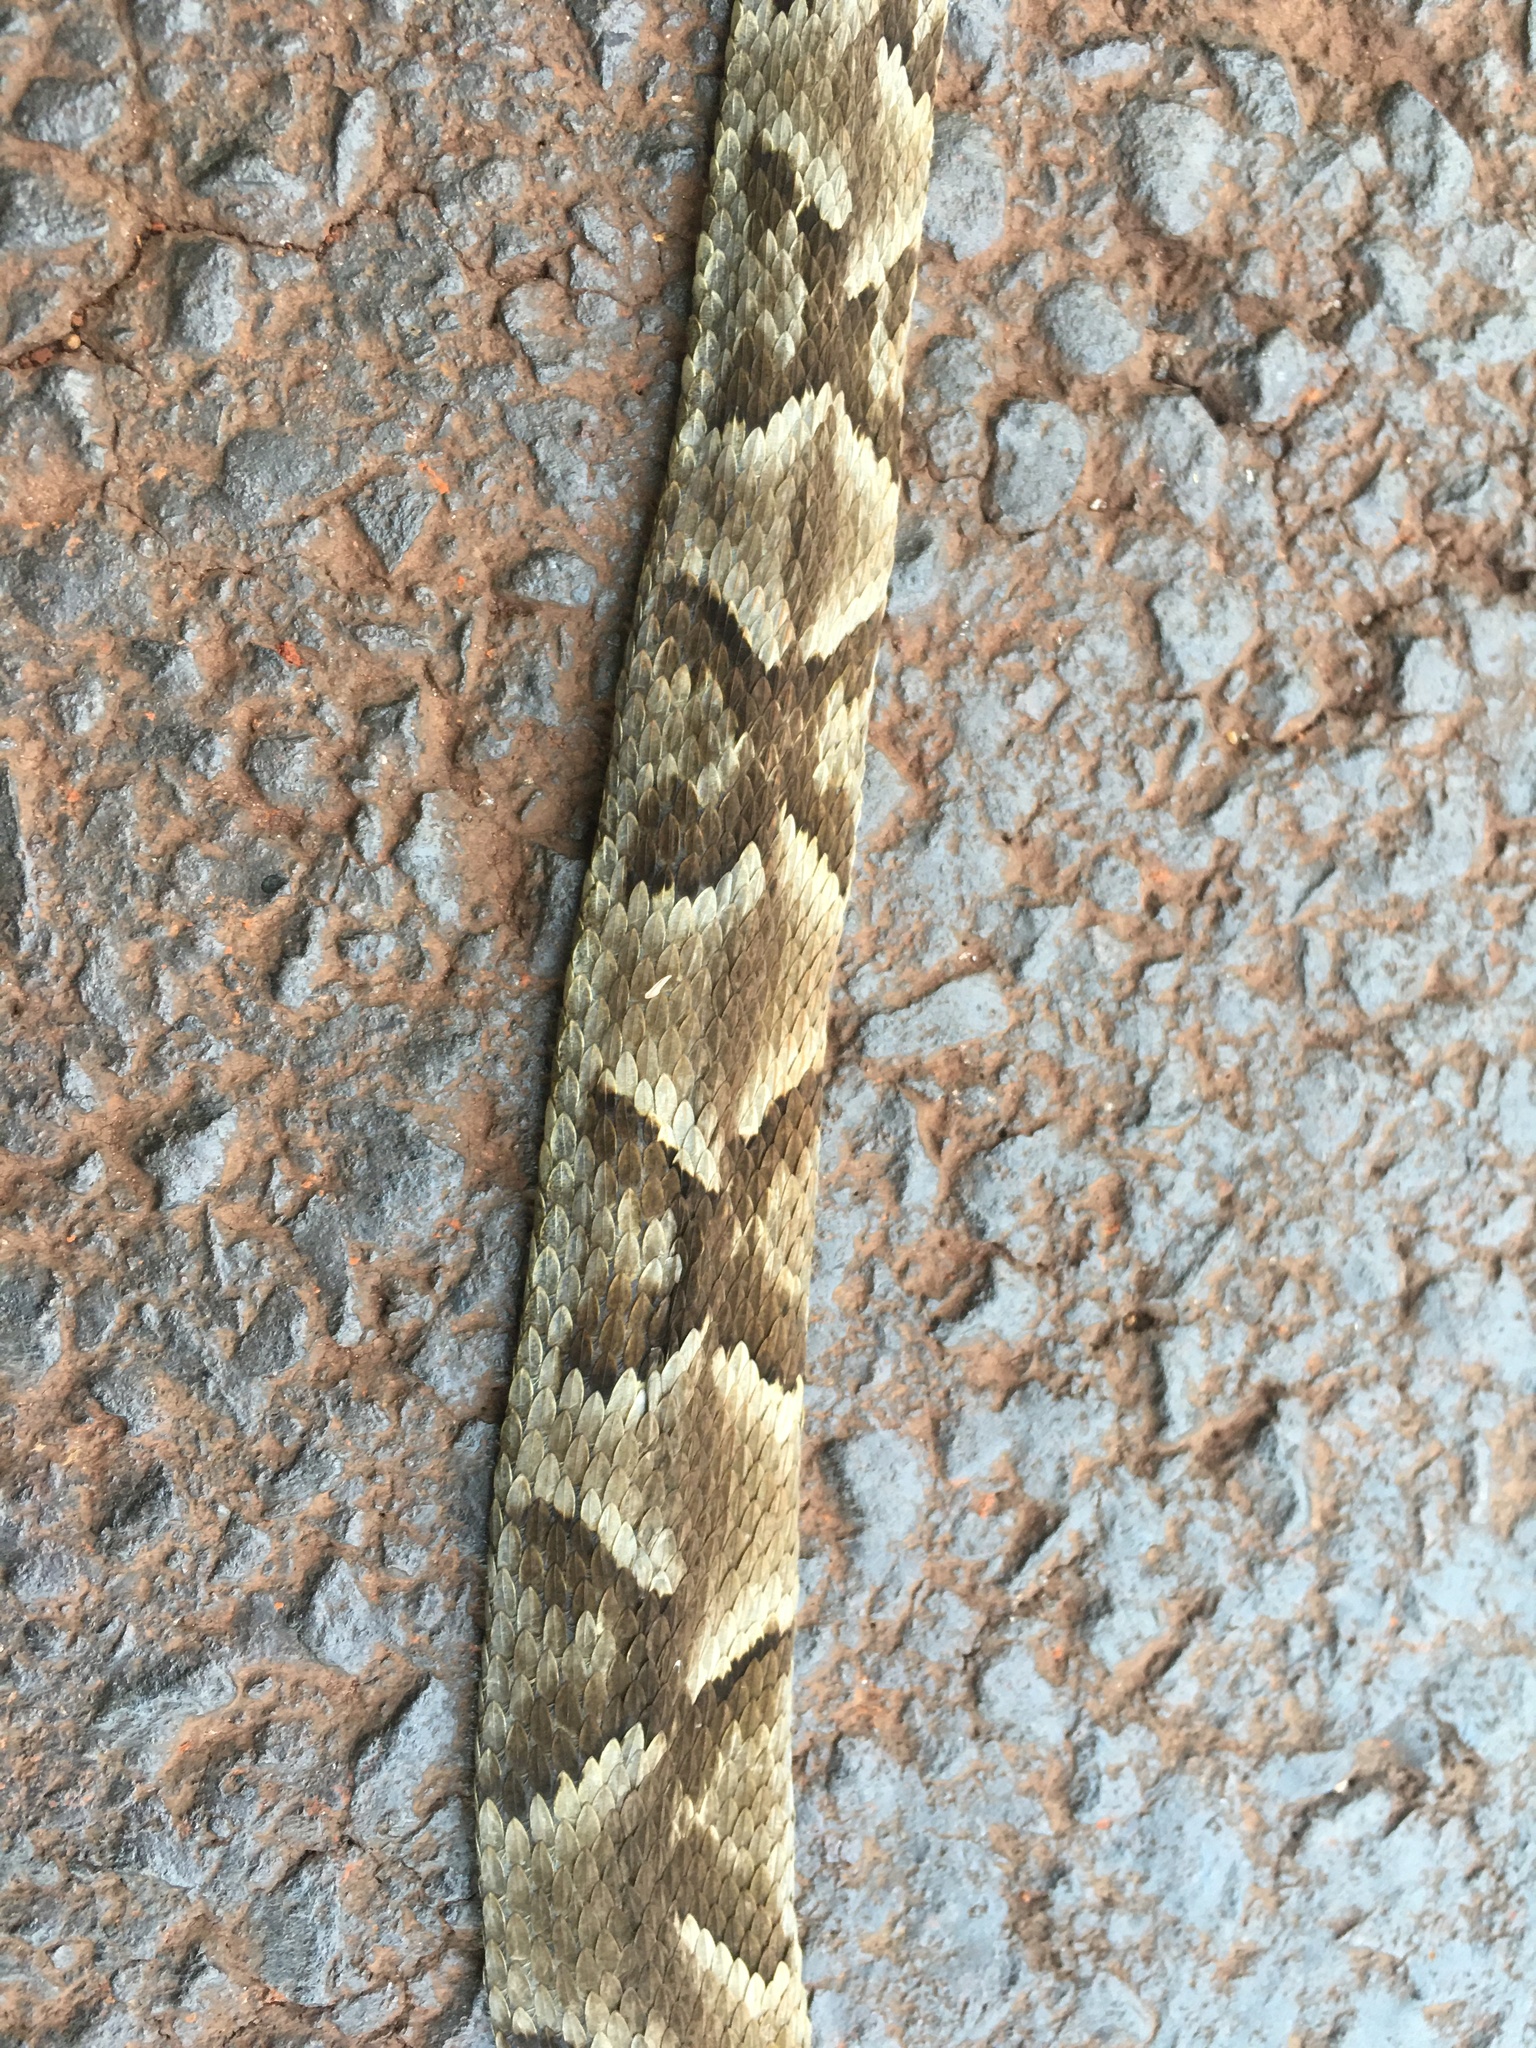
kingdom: Animalia
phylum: Chordata
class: Squamata
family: Viperidae
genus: Bothrops
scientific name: Bothrops jararaca
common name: Jararaca
